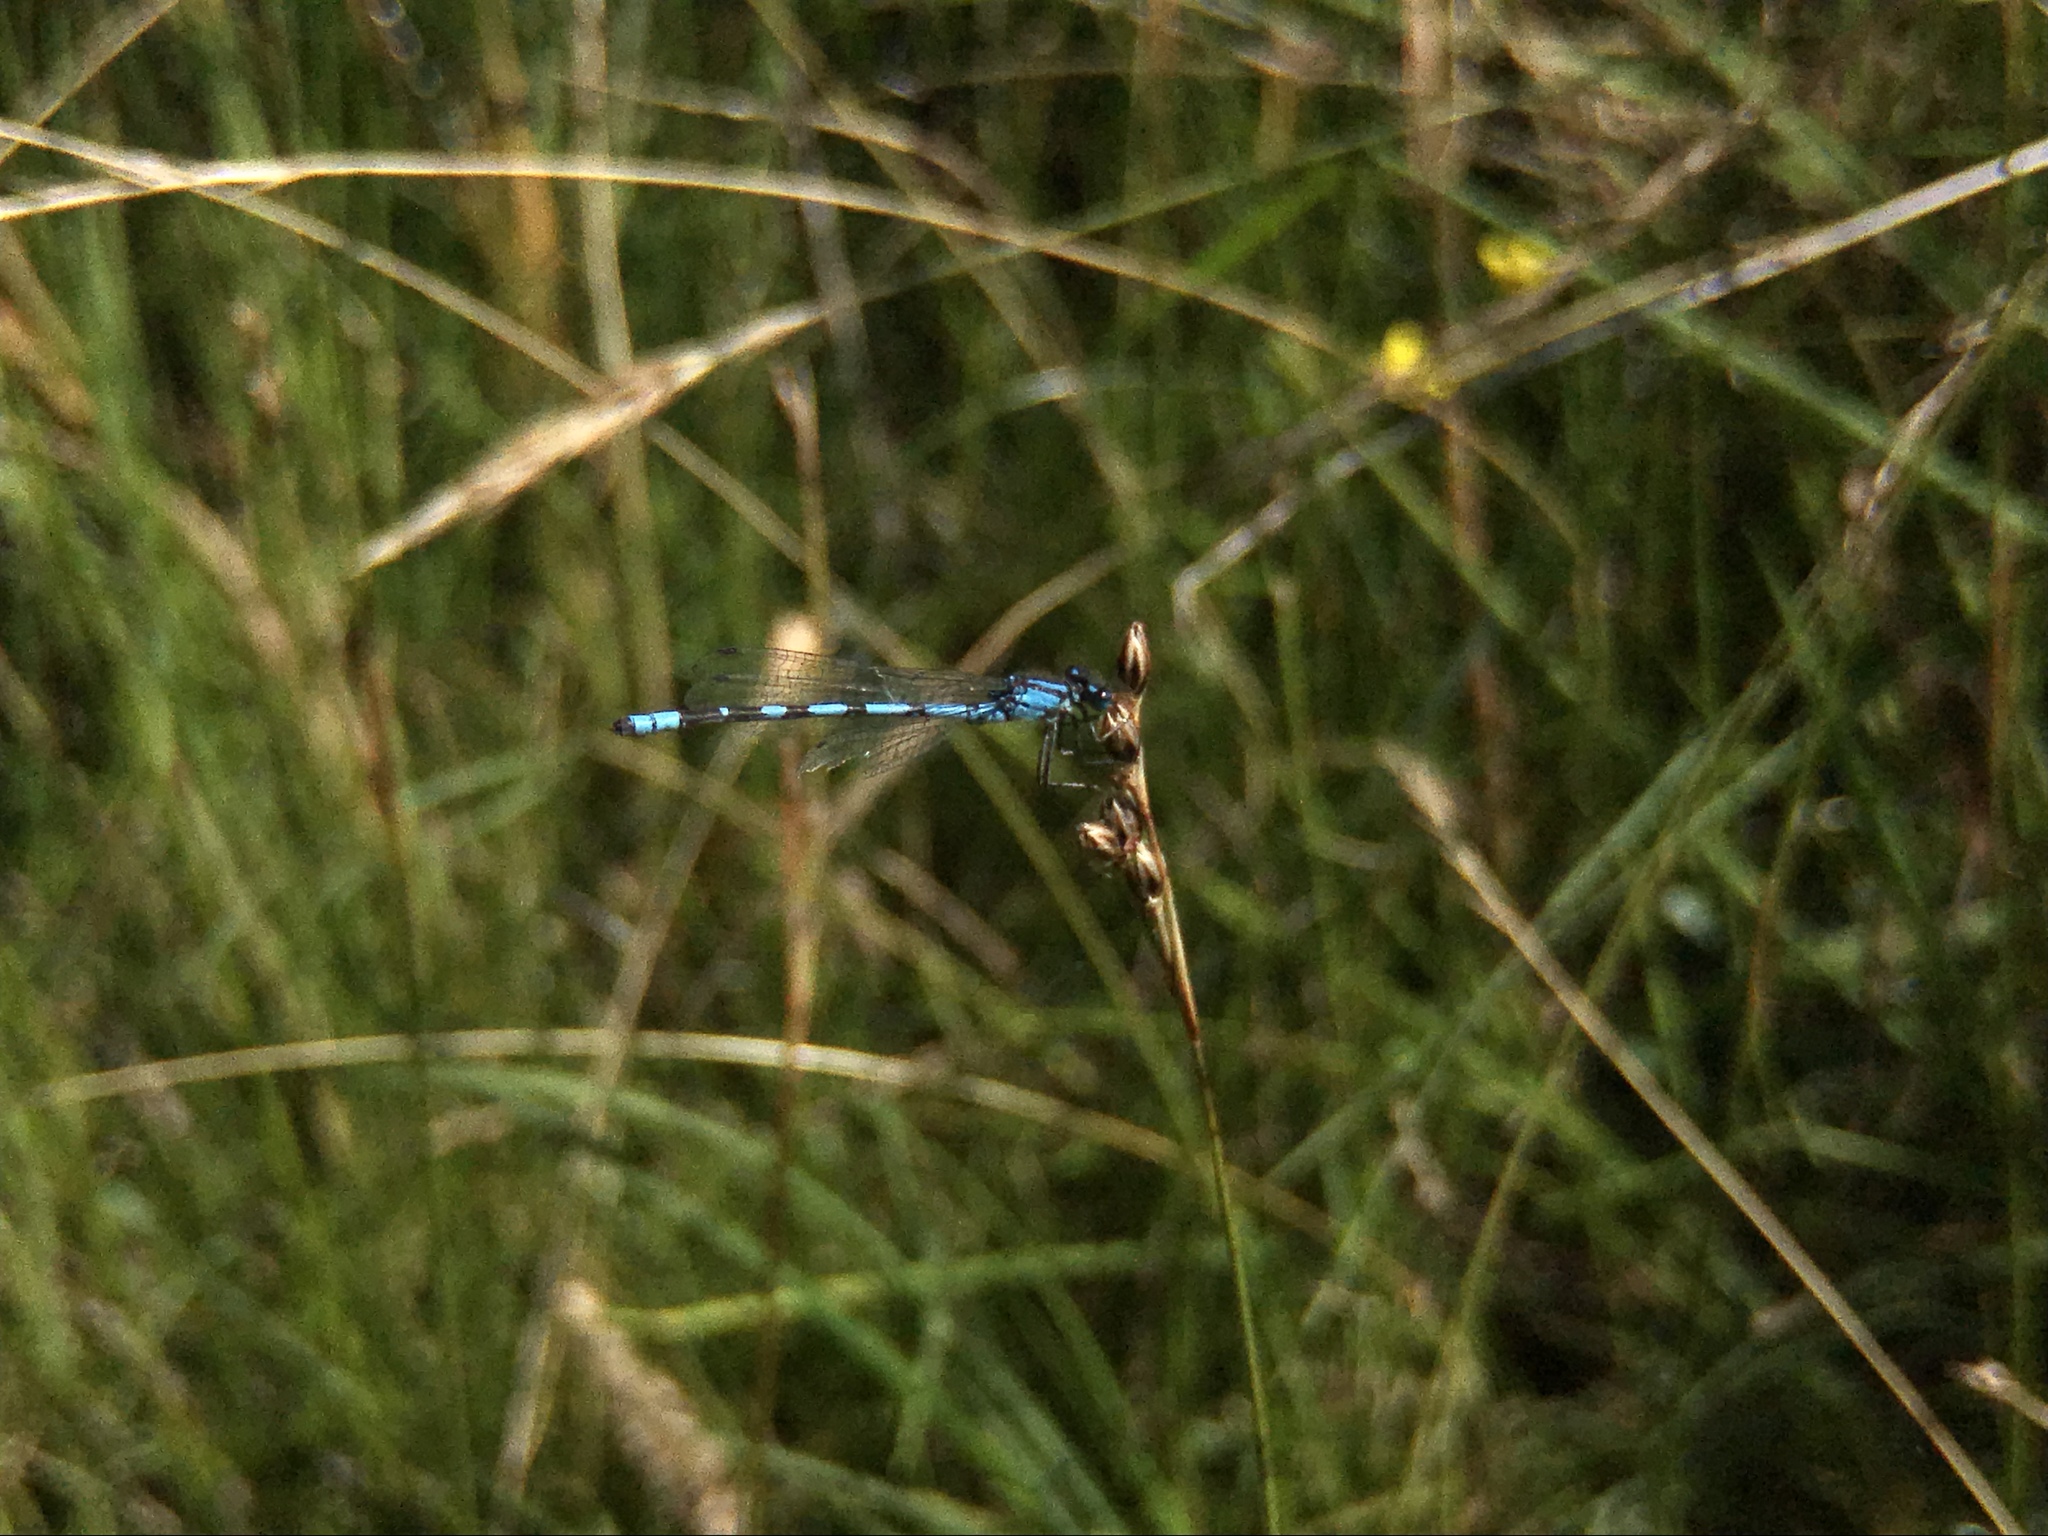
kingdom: Animalia
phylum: Arthropoda
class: Insecta
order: Odonata
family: Coenagrionidae
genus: Enallagma
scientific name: Enallagma cyathigerum
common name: Common blue damselfly
